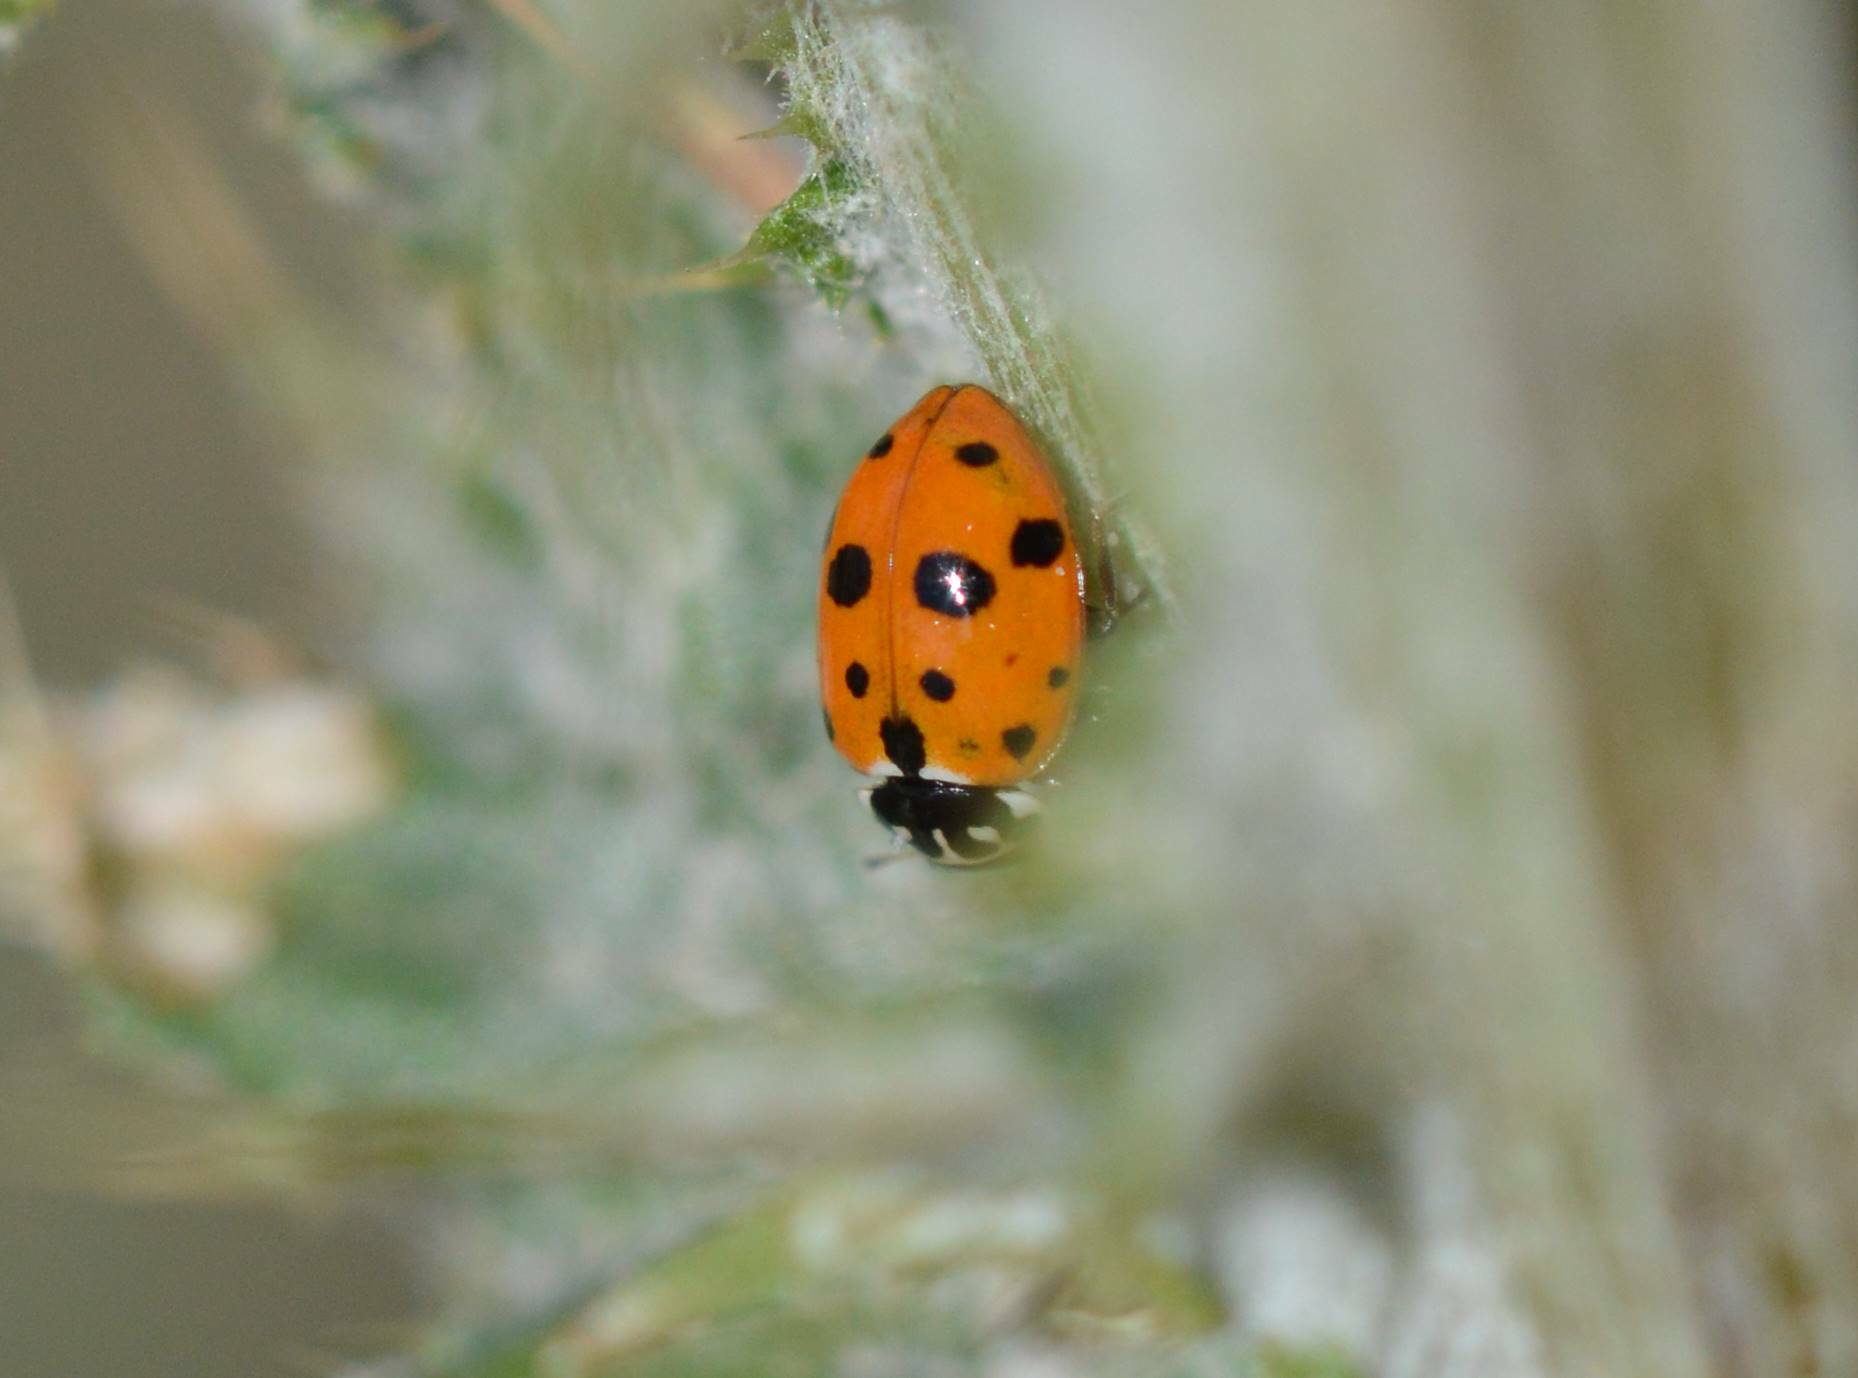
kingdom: Animalia
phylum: Arthropoda
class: Insecta
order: Coleoptera
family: Coccinellidae
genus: Hippodamia
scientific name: Hippodamia variegata
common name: Ladybird beetle
